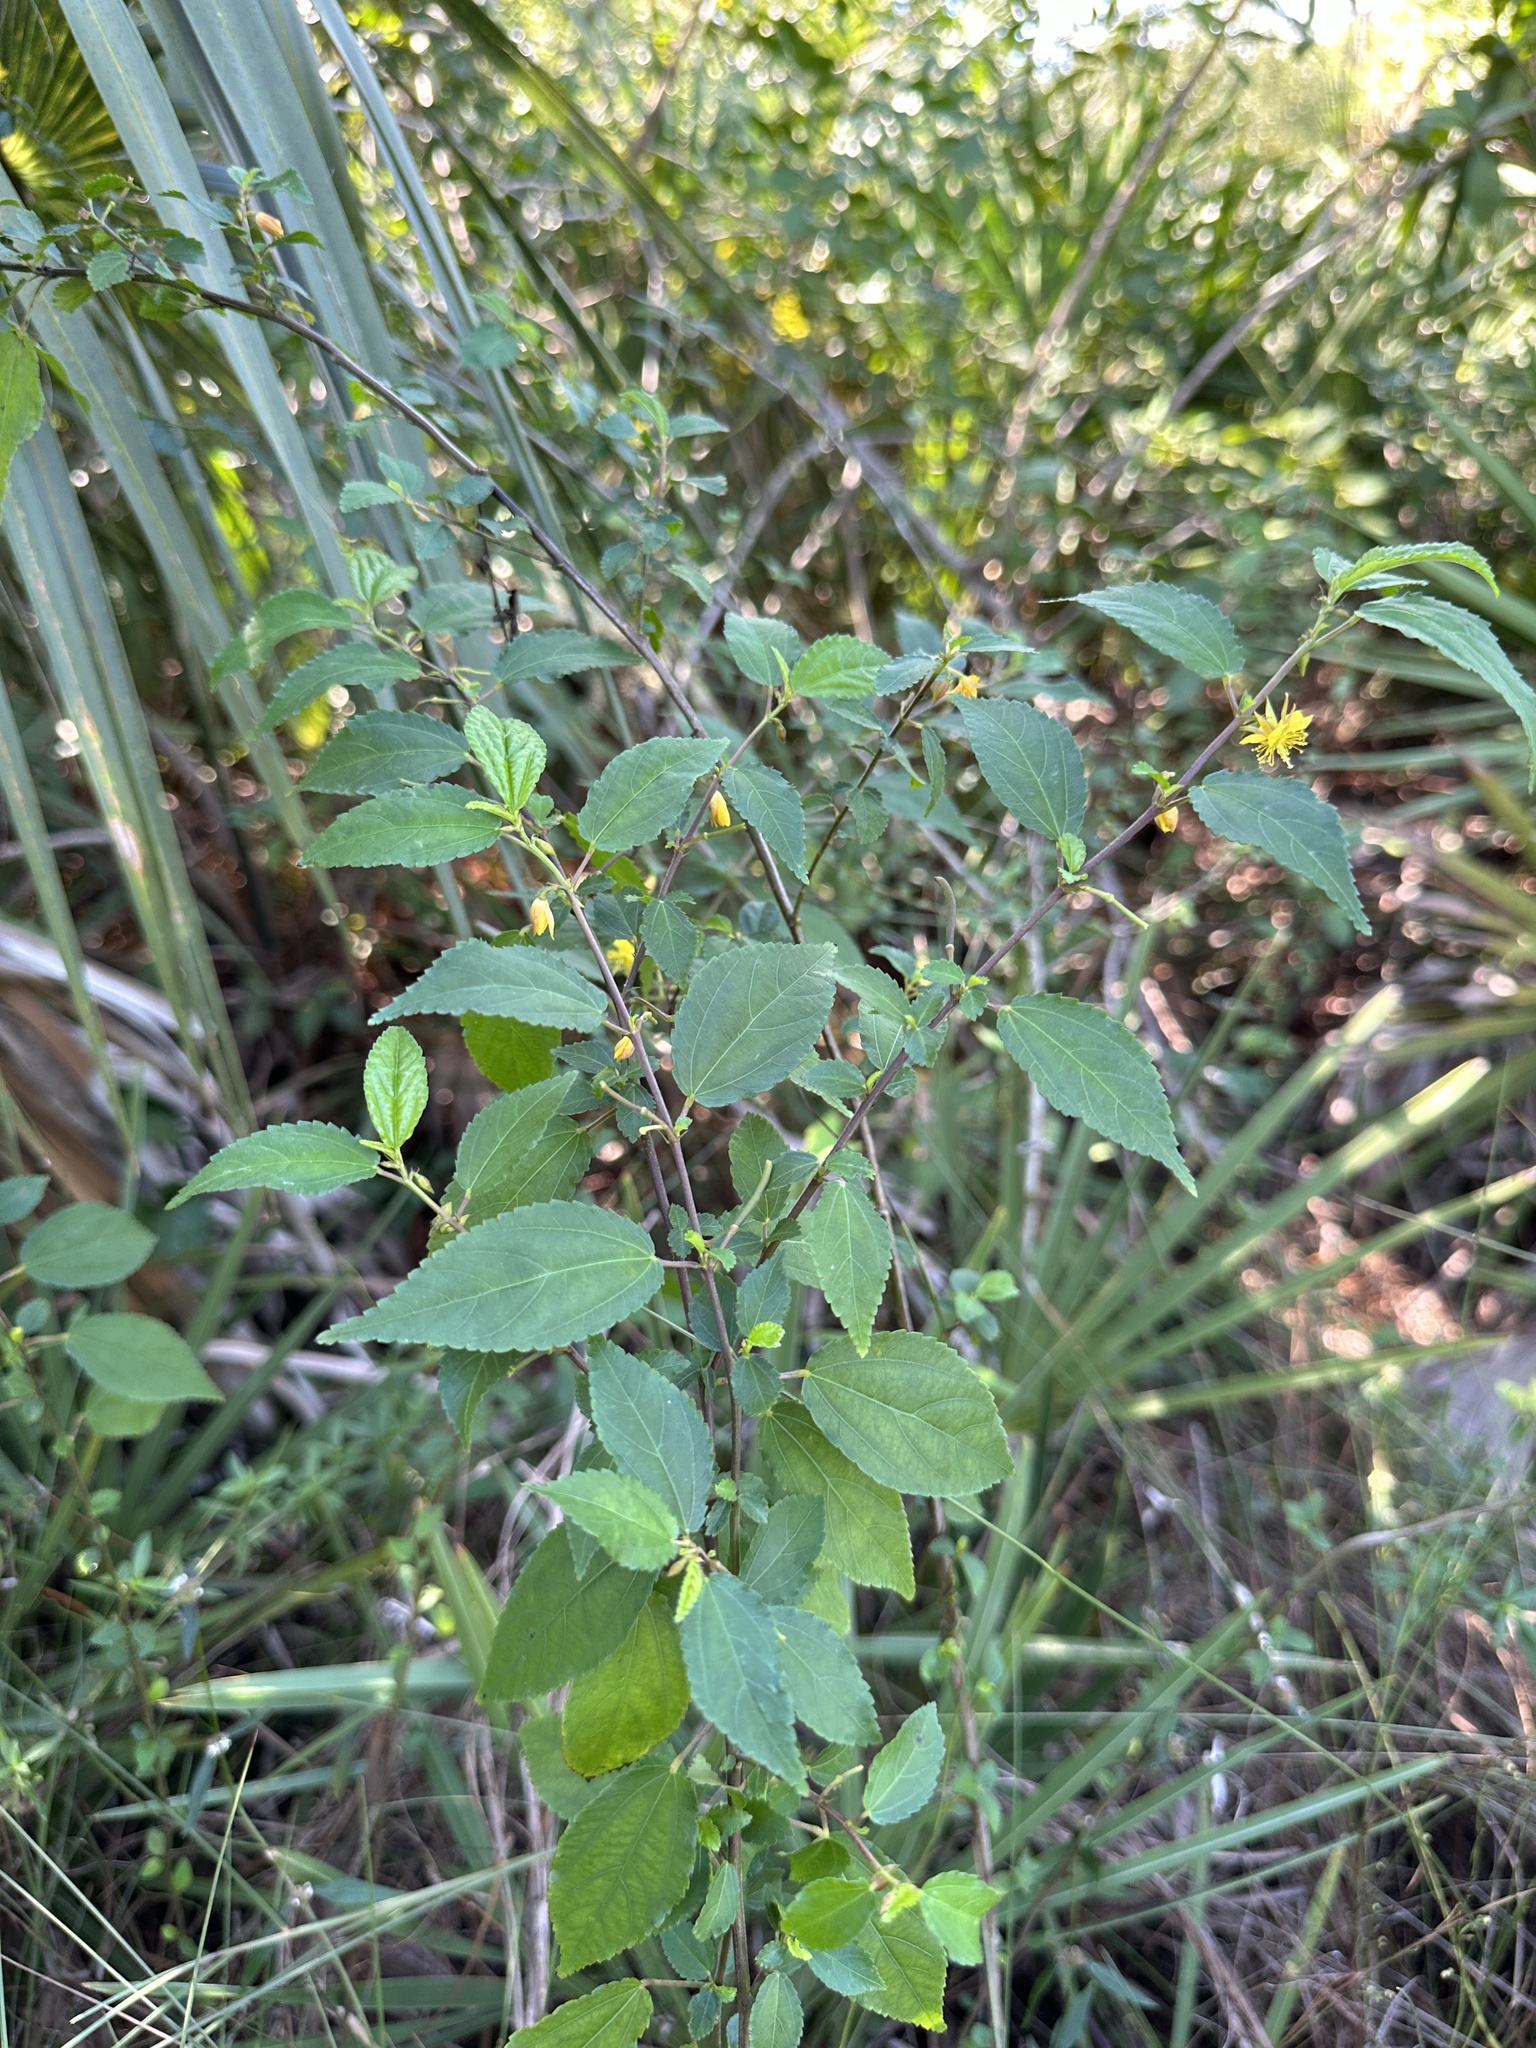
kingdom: Plantae
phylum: Tracheophyta
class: Magnoliopsida
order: Malvales
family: Malvaceae
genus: Corchorus
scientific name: Corchorus siliquosus
